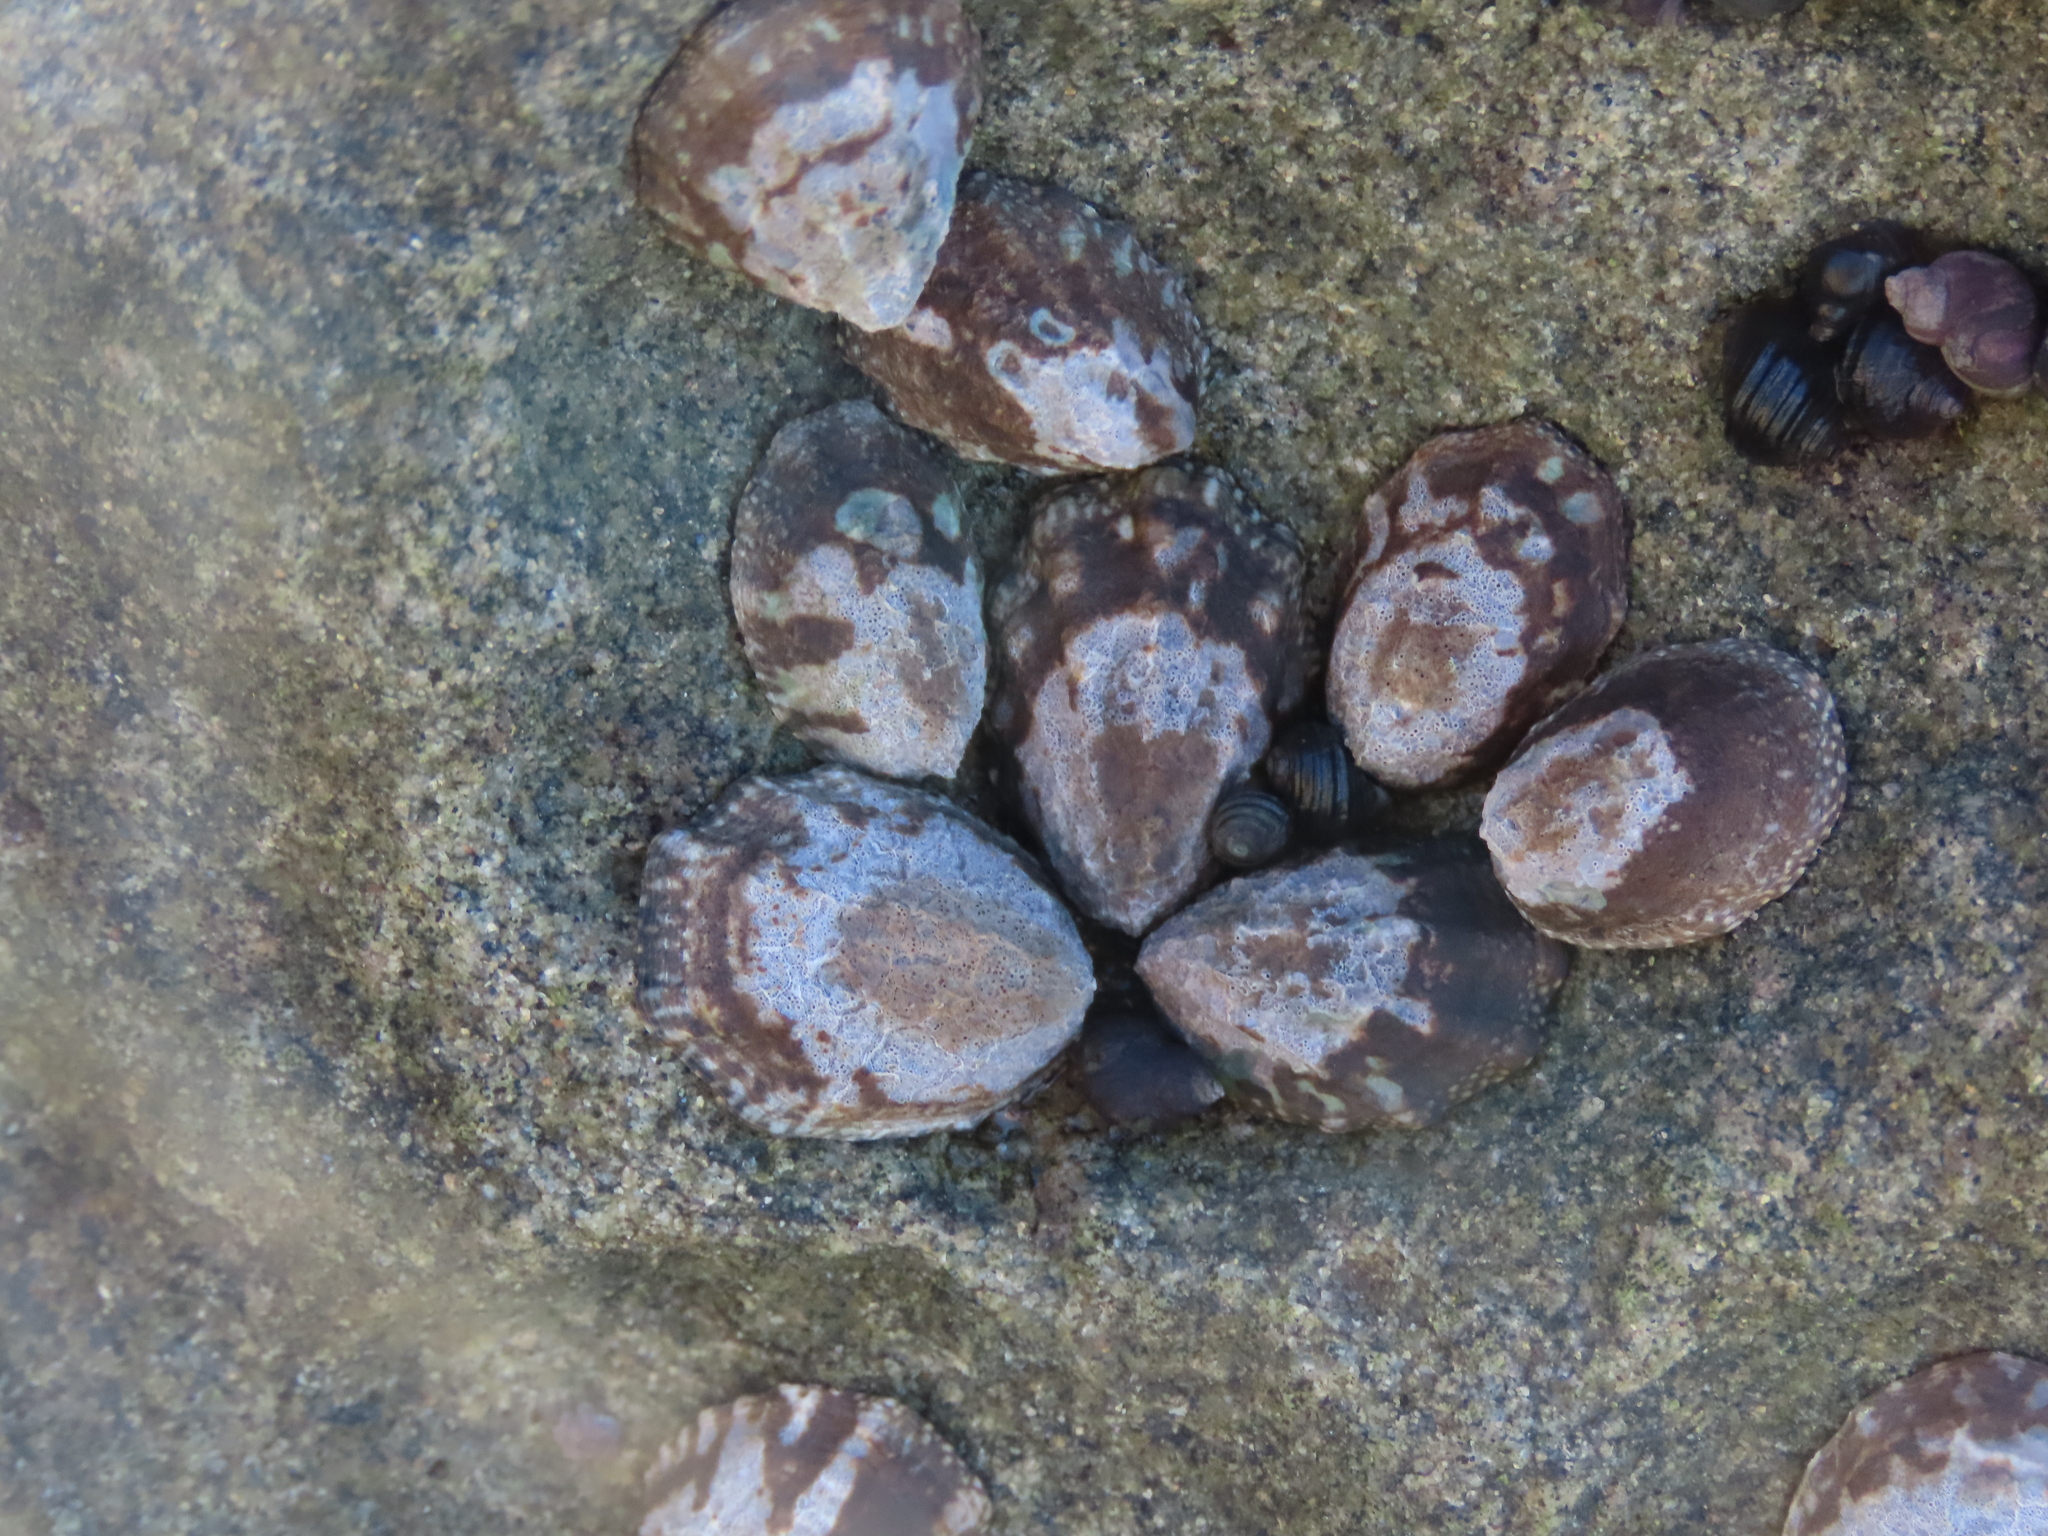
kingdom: Animalia
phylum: Mollusca
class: Gastropoda
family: Lottiidae
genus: Lottia
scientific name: Lottia digitalis
